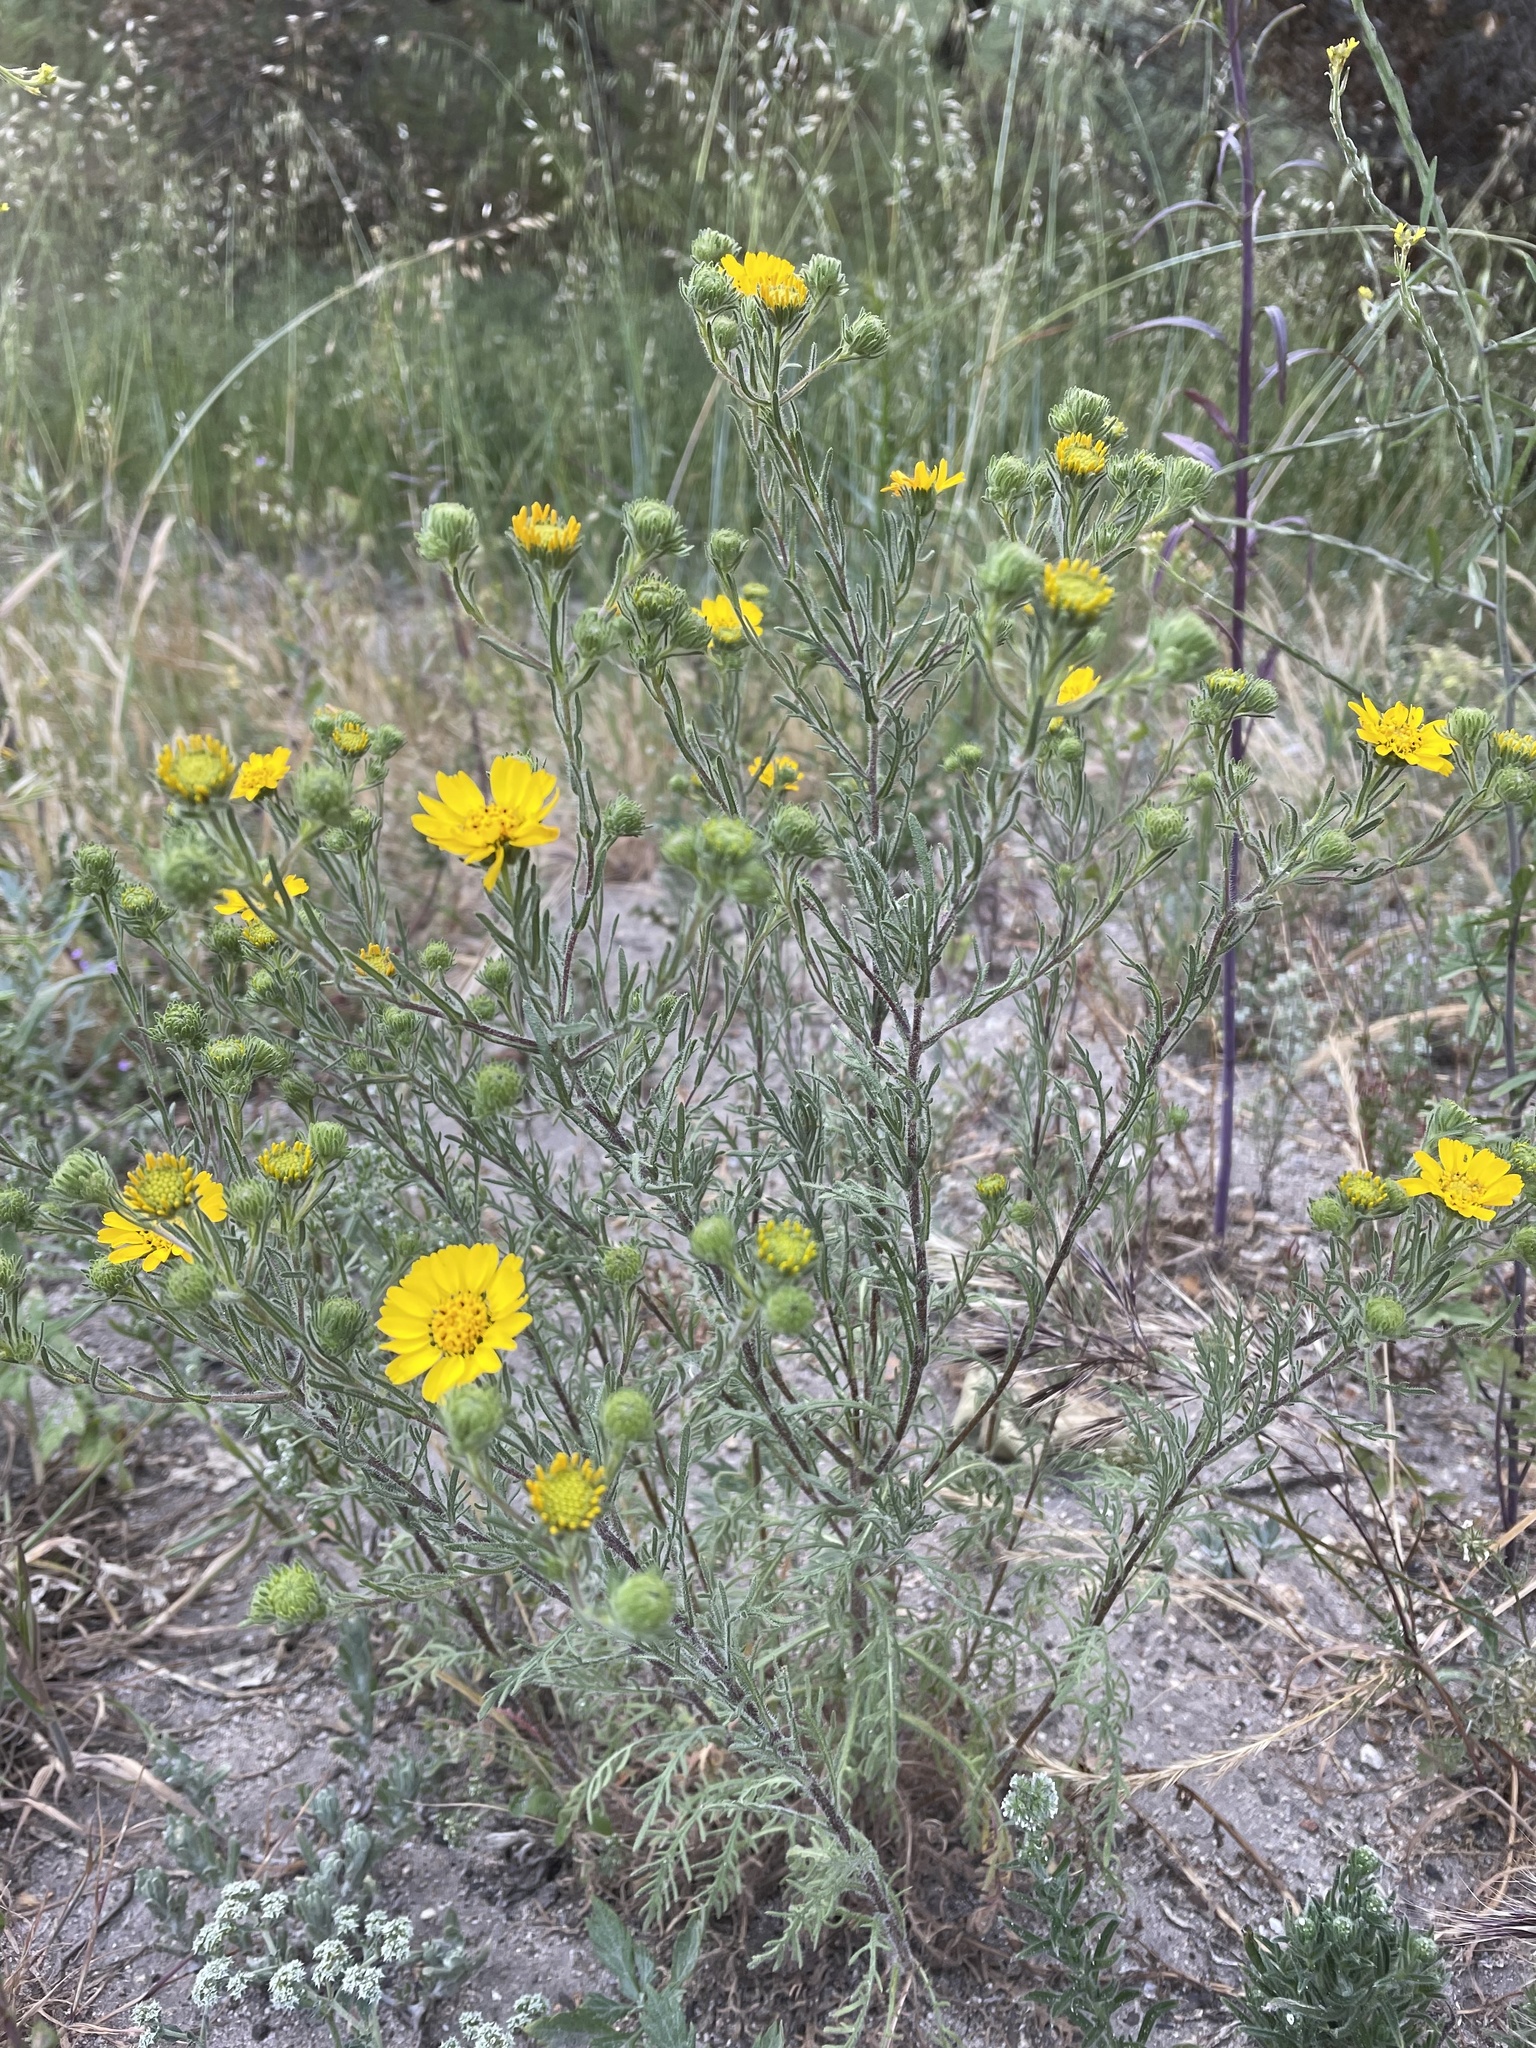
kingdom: Plantae
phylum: Tracheophyta
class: Magnoliopsida
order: Asterales
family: Asteraceae
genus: Deinandra
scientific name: Deinandra corymbosa
